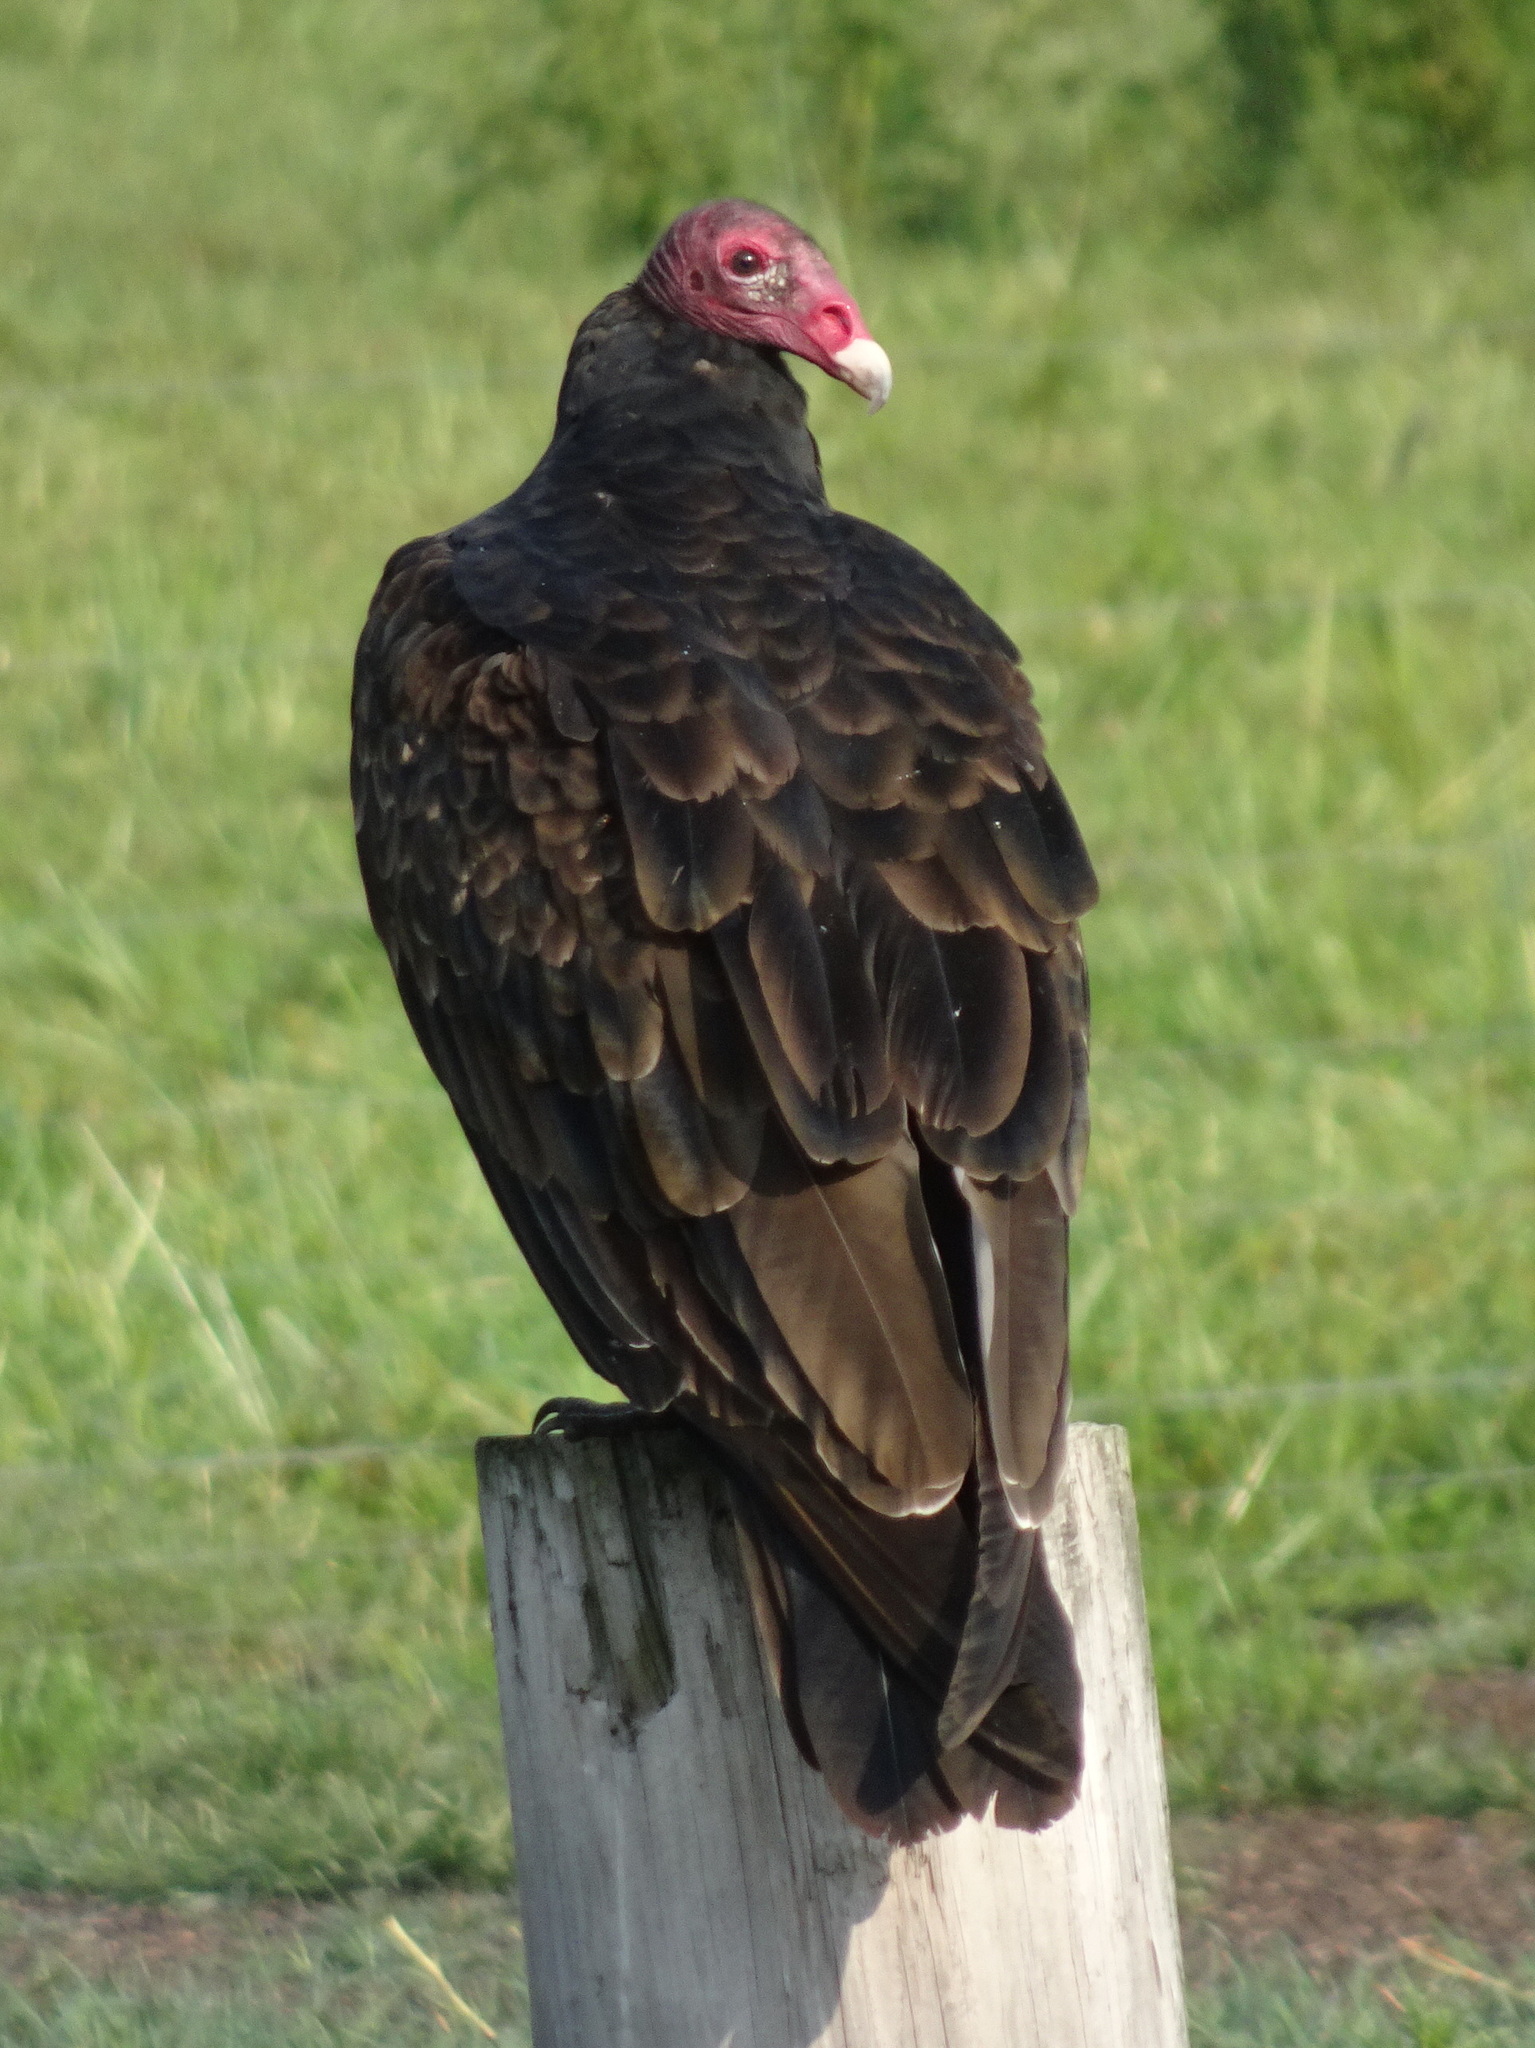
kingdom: Animalia
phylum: Chordata
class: Aves
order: Accipitriformes
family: Cathartidae
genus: Cathartes
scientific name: Cathartes aura
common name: Turkey vulture
